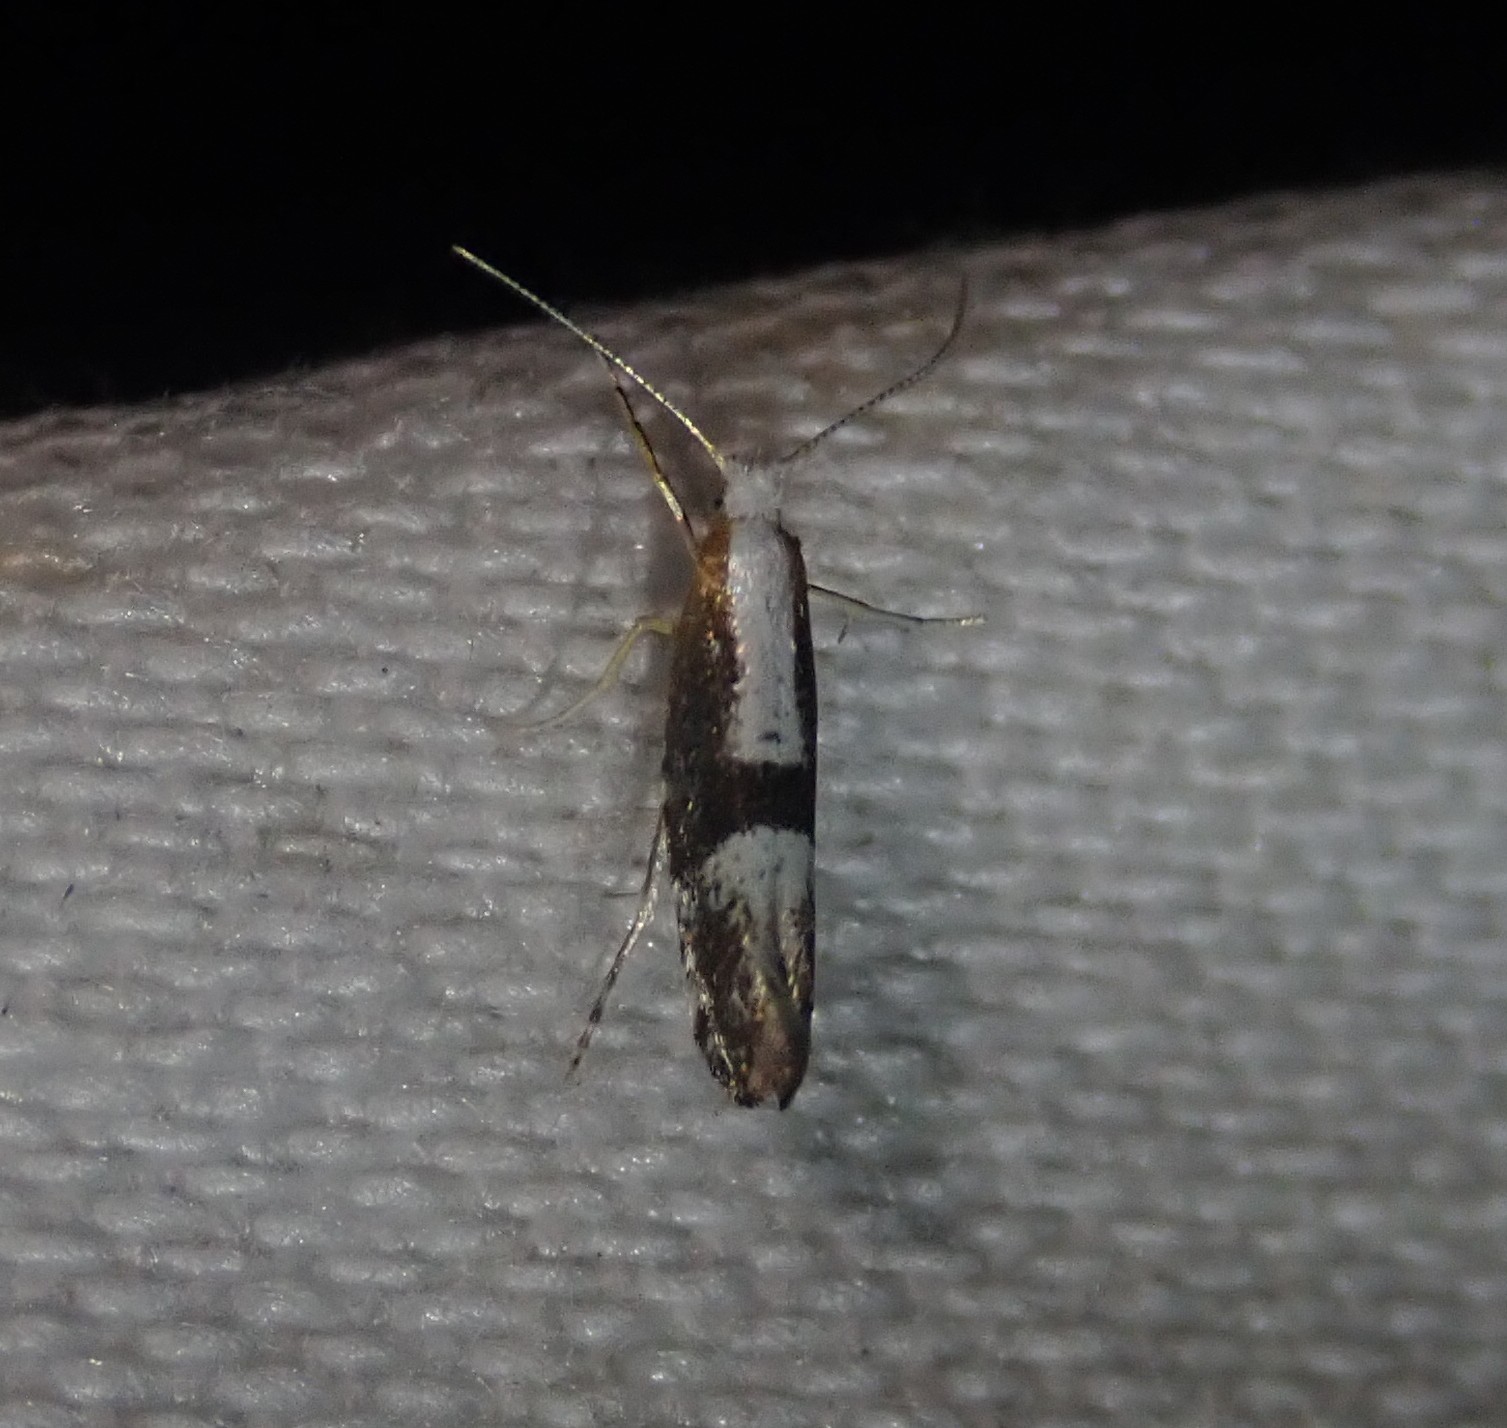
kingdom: Animalia
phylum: Arthropoda
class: Insecta
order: Lepidoptera
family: Argyresthiidae
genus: Argyresthia
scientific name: Argyresthia spinosella
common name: Blackthorn argent
